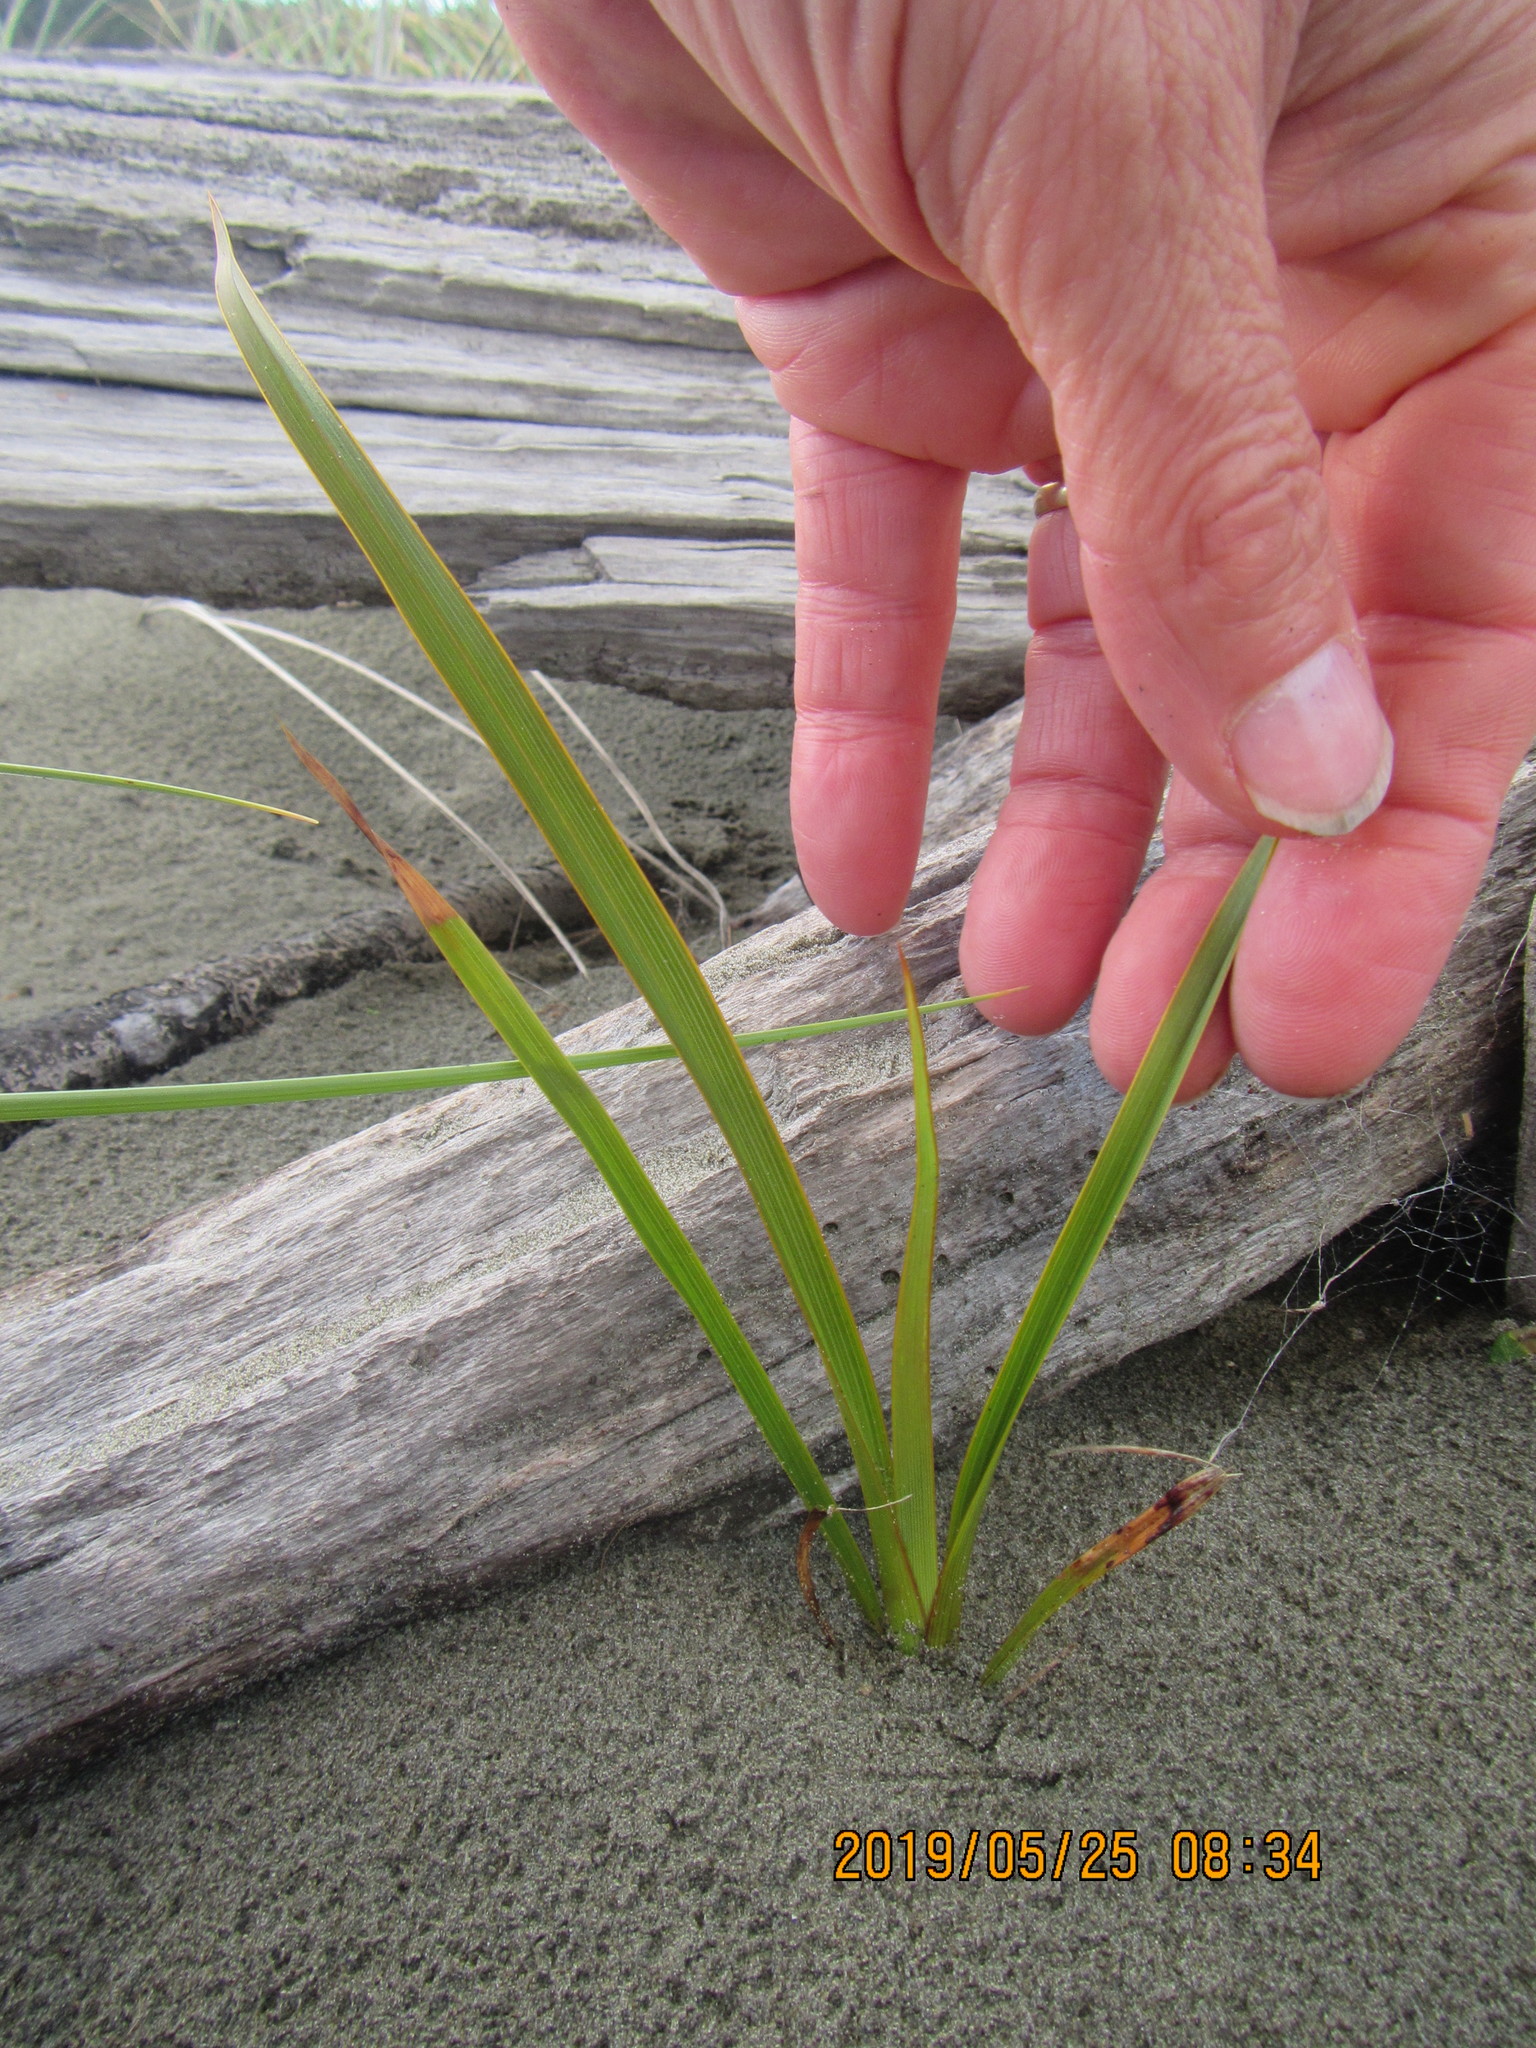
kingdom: Plantae
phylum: Tracheophyta
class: Liliopsida
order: Asparagales
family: Asphodelaceae
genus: Phormium
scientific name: Phormium tenax
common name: New zealand flax
